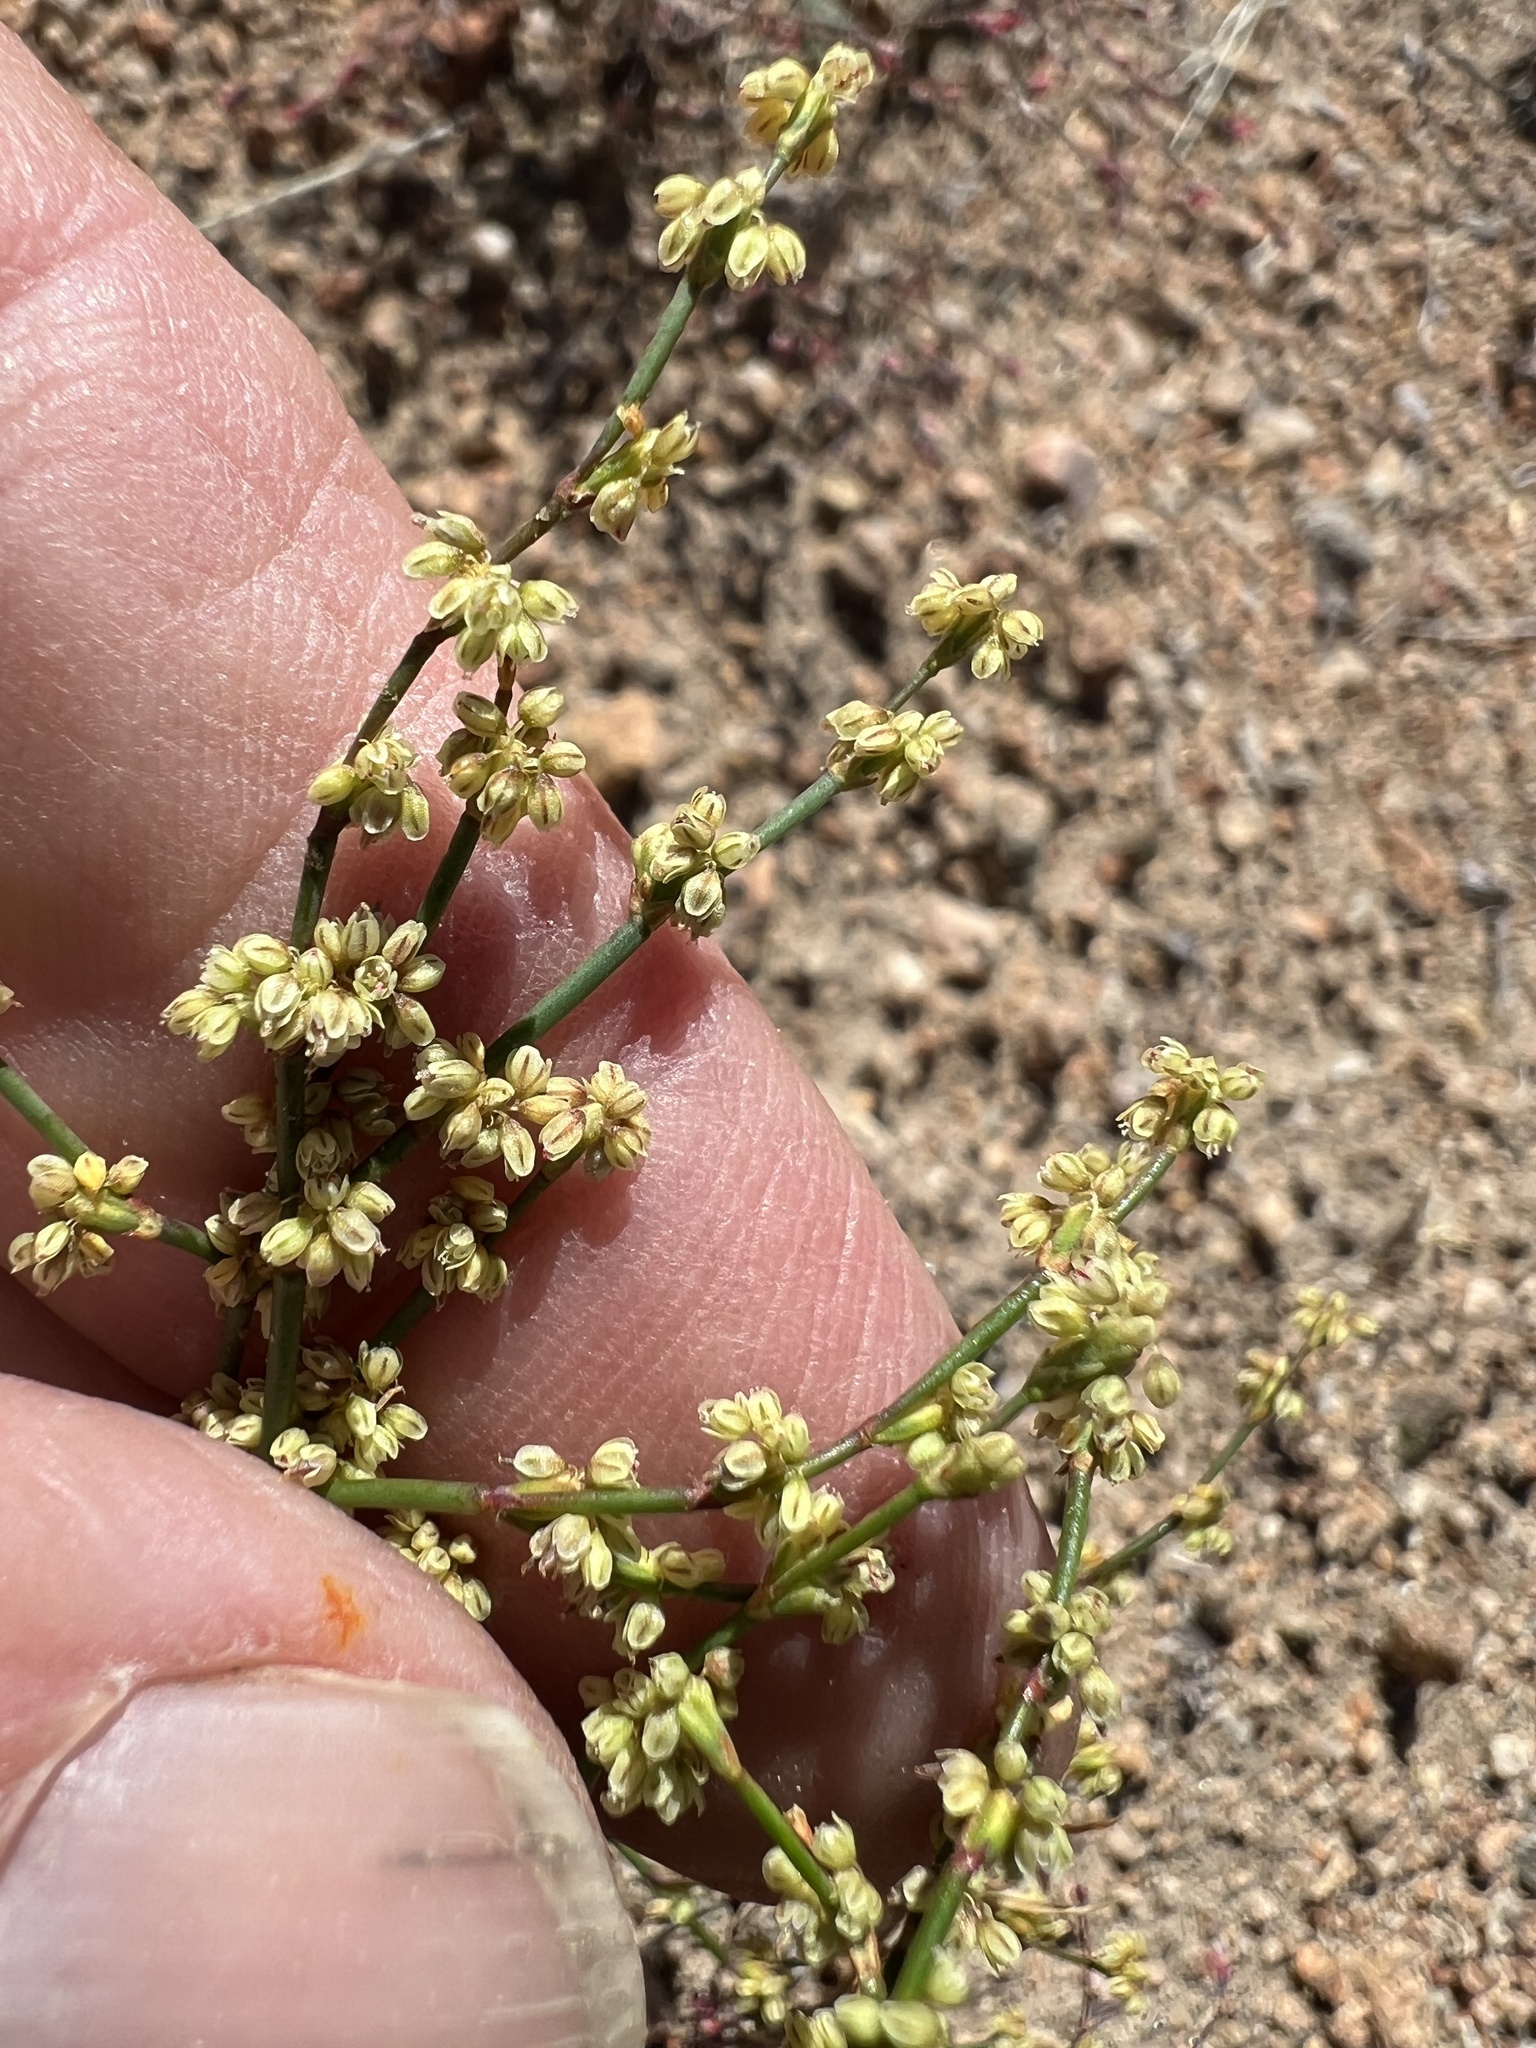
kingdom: Plantae
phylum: Tracheophyta
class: Magnoliopsida
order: Caryophyllales
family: Polygonaceae
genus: Eriogonum
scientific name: Eriogonum brachyanthum
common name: Short-flower wild buckwheat
